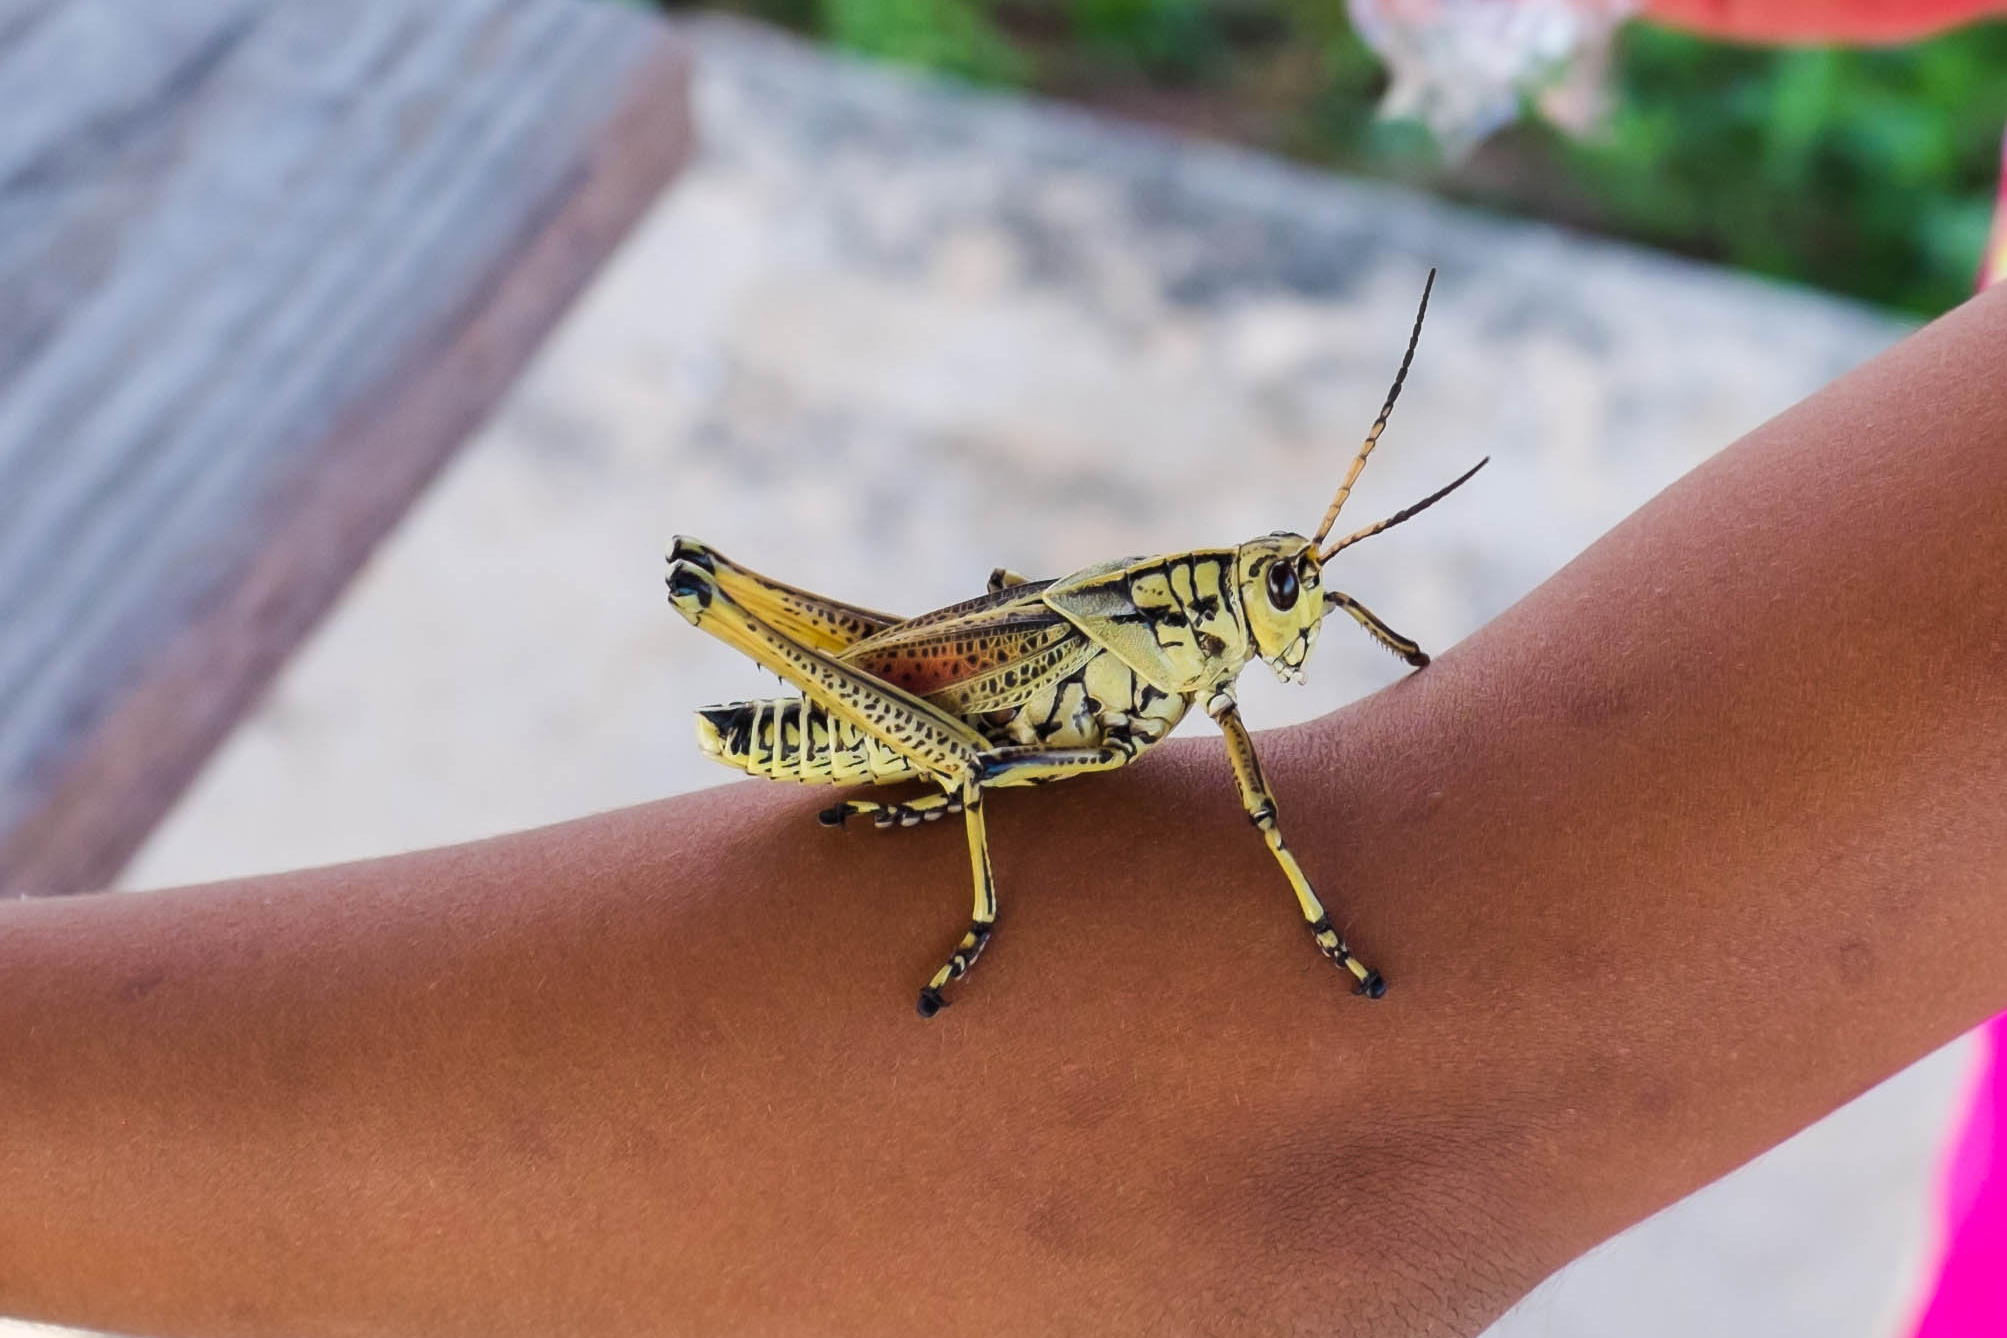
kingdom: Animalia
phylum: Arthropoda
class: Insecta
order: Orthoptera
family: Romaleidae
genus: Romalea
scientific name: Romalea microptera
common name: Eastern lubber grasshopper
